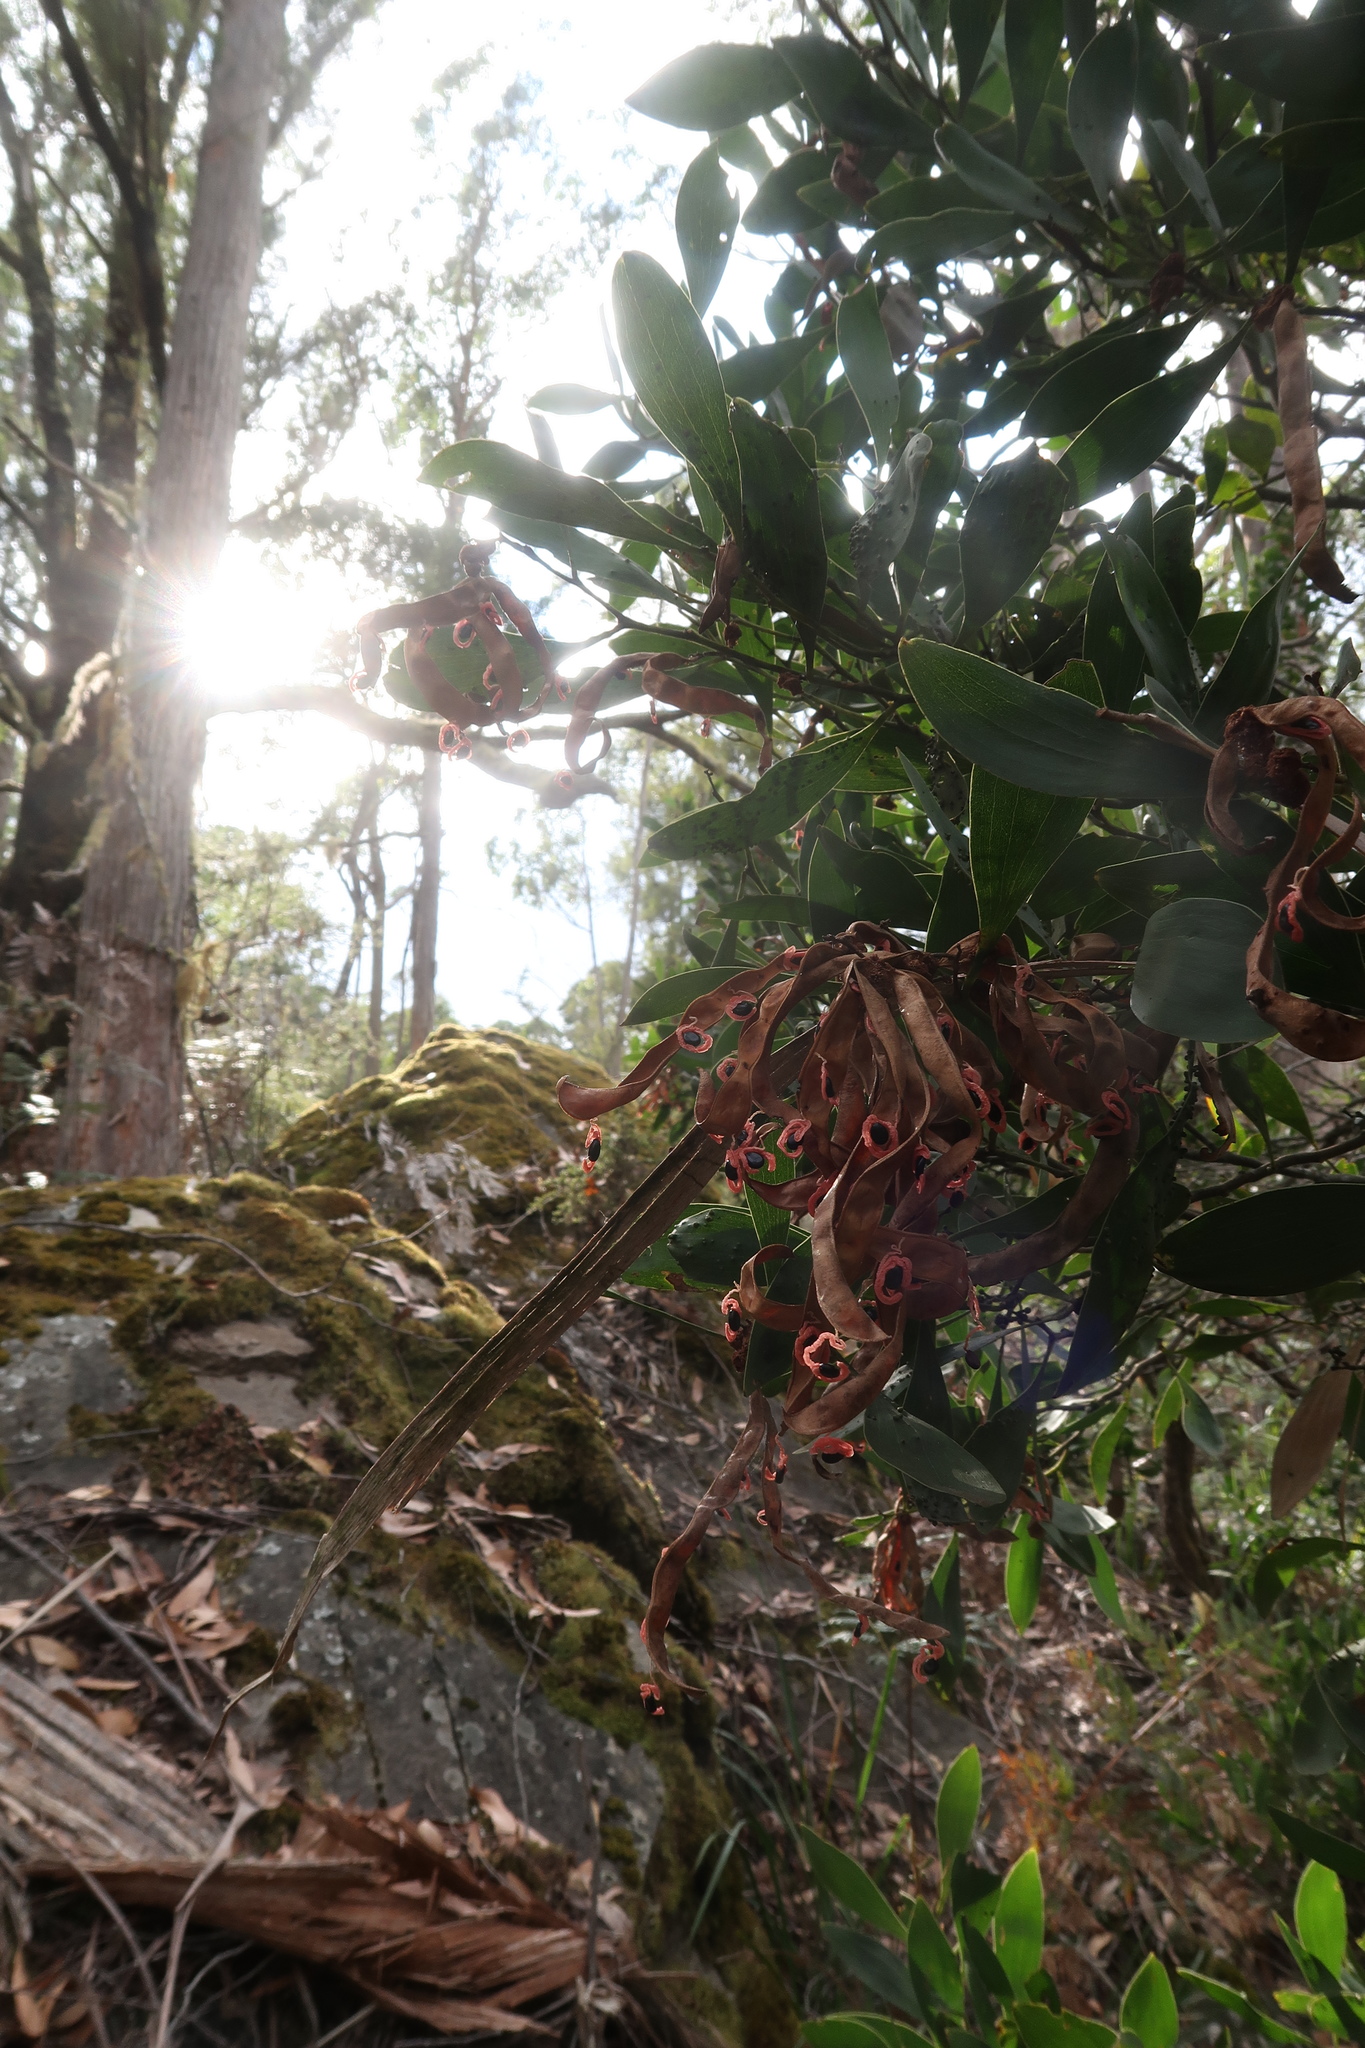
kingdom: Plantae
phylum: Tracheophyta
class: Magnoliopsida
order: Fabales
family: Fabaceae
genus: Acacia
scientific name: Acacia melanoxylon
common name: Blackwood
